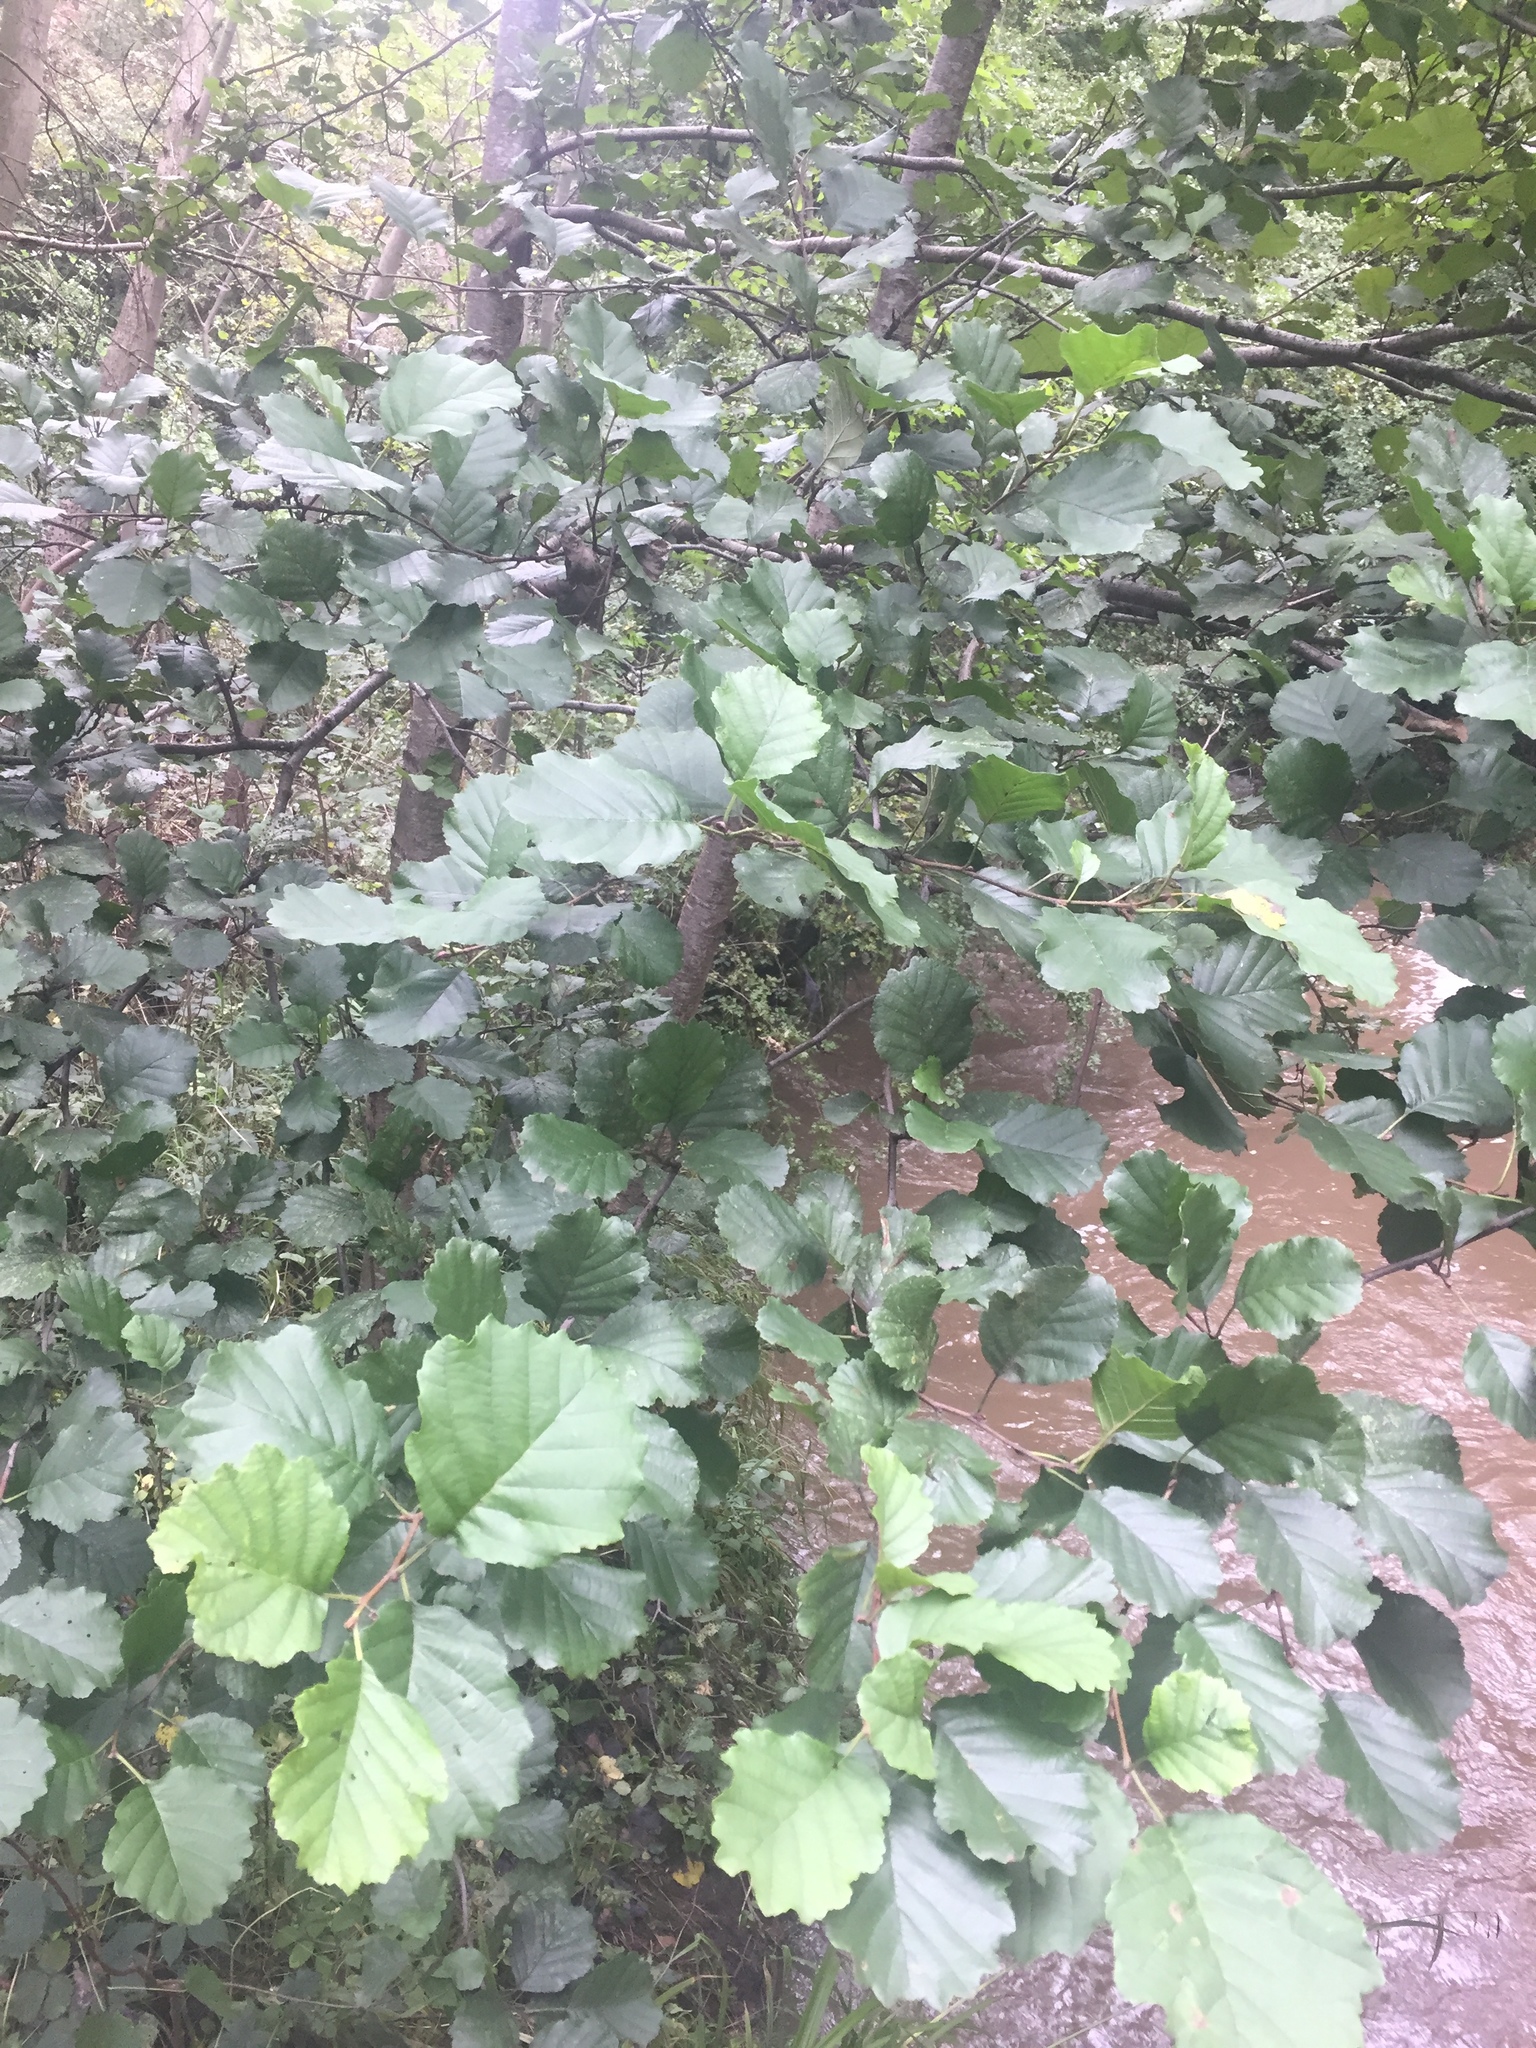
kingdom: Plantae
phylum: Tracheophyta
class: Magnoliopsida
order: Fagales
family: Betulaceae
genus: Alnus
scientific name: Alnus glutinosa
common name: Black alder
